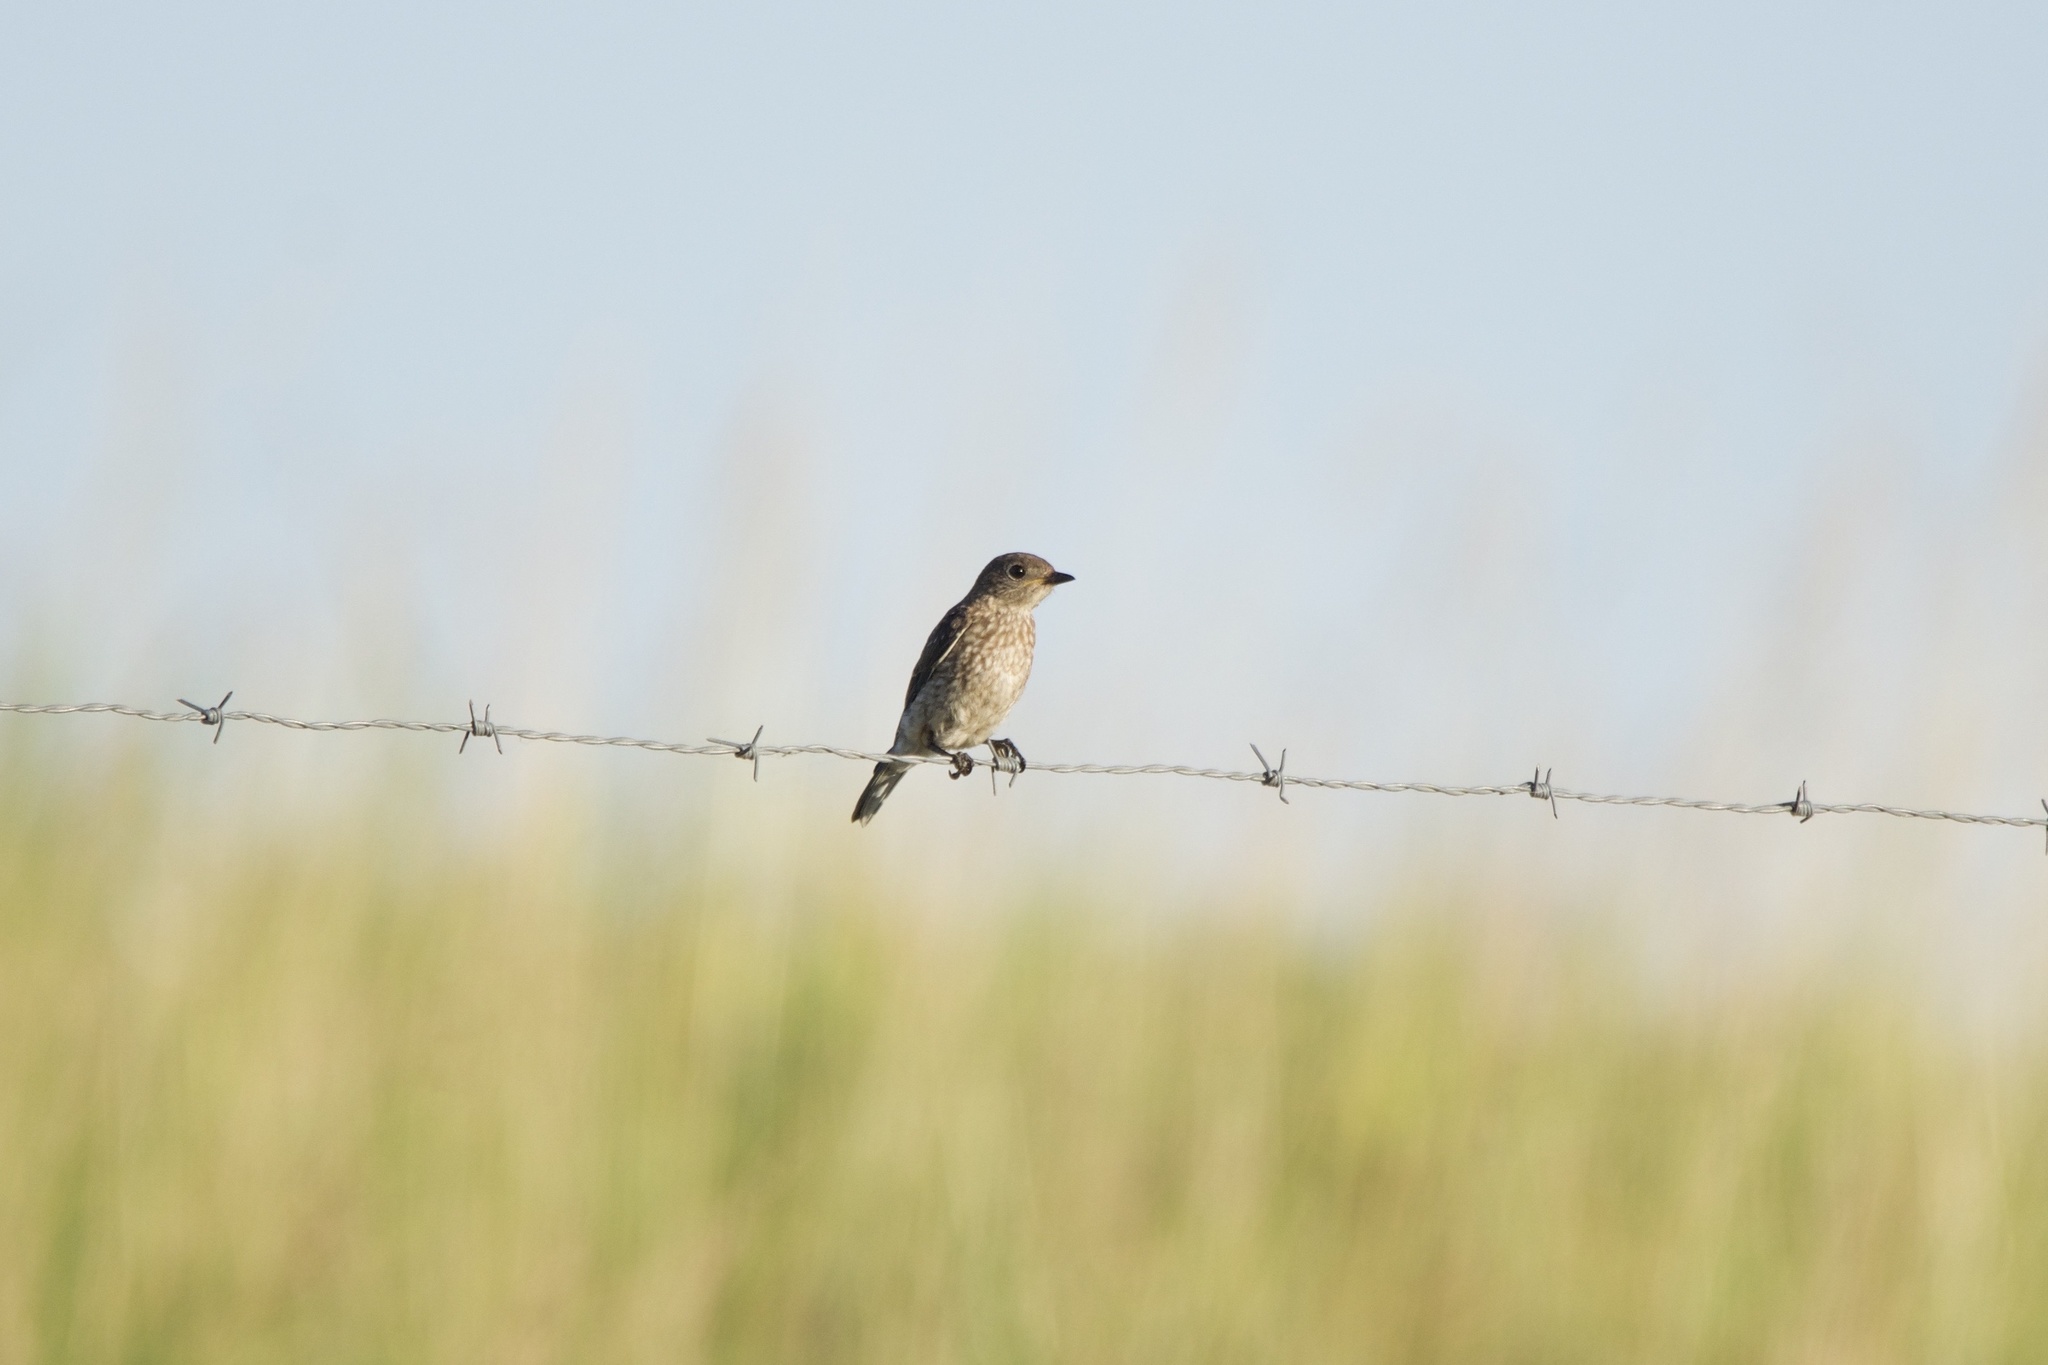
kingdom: Animalia
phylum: Chordata
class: Aves
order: Passeriformes
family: Turdidae
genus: Sialia
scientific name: Sialia sialis
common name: Eastern bluebird
